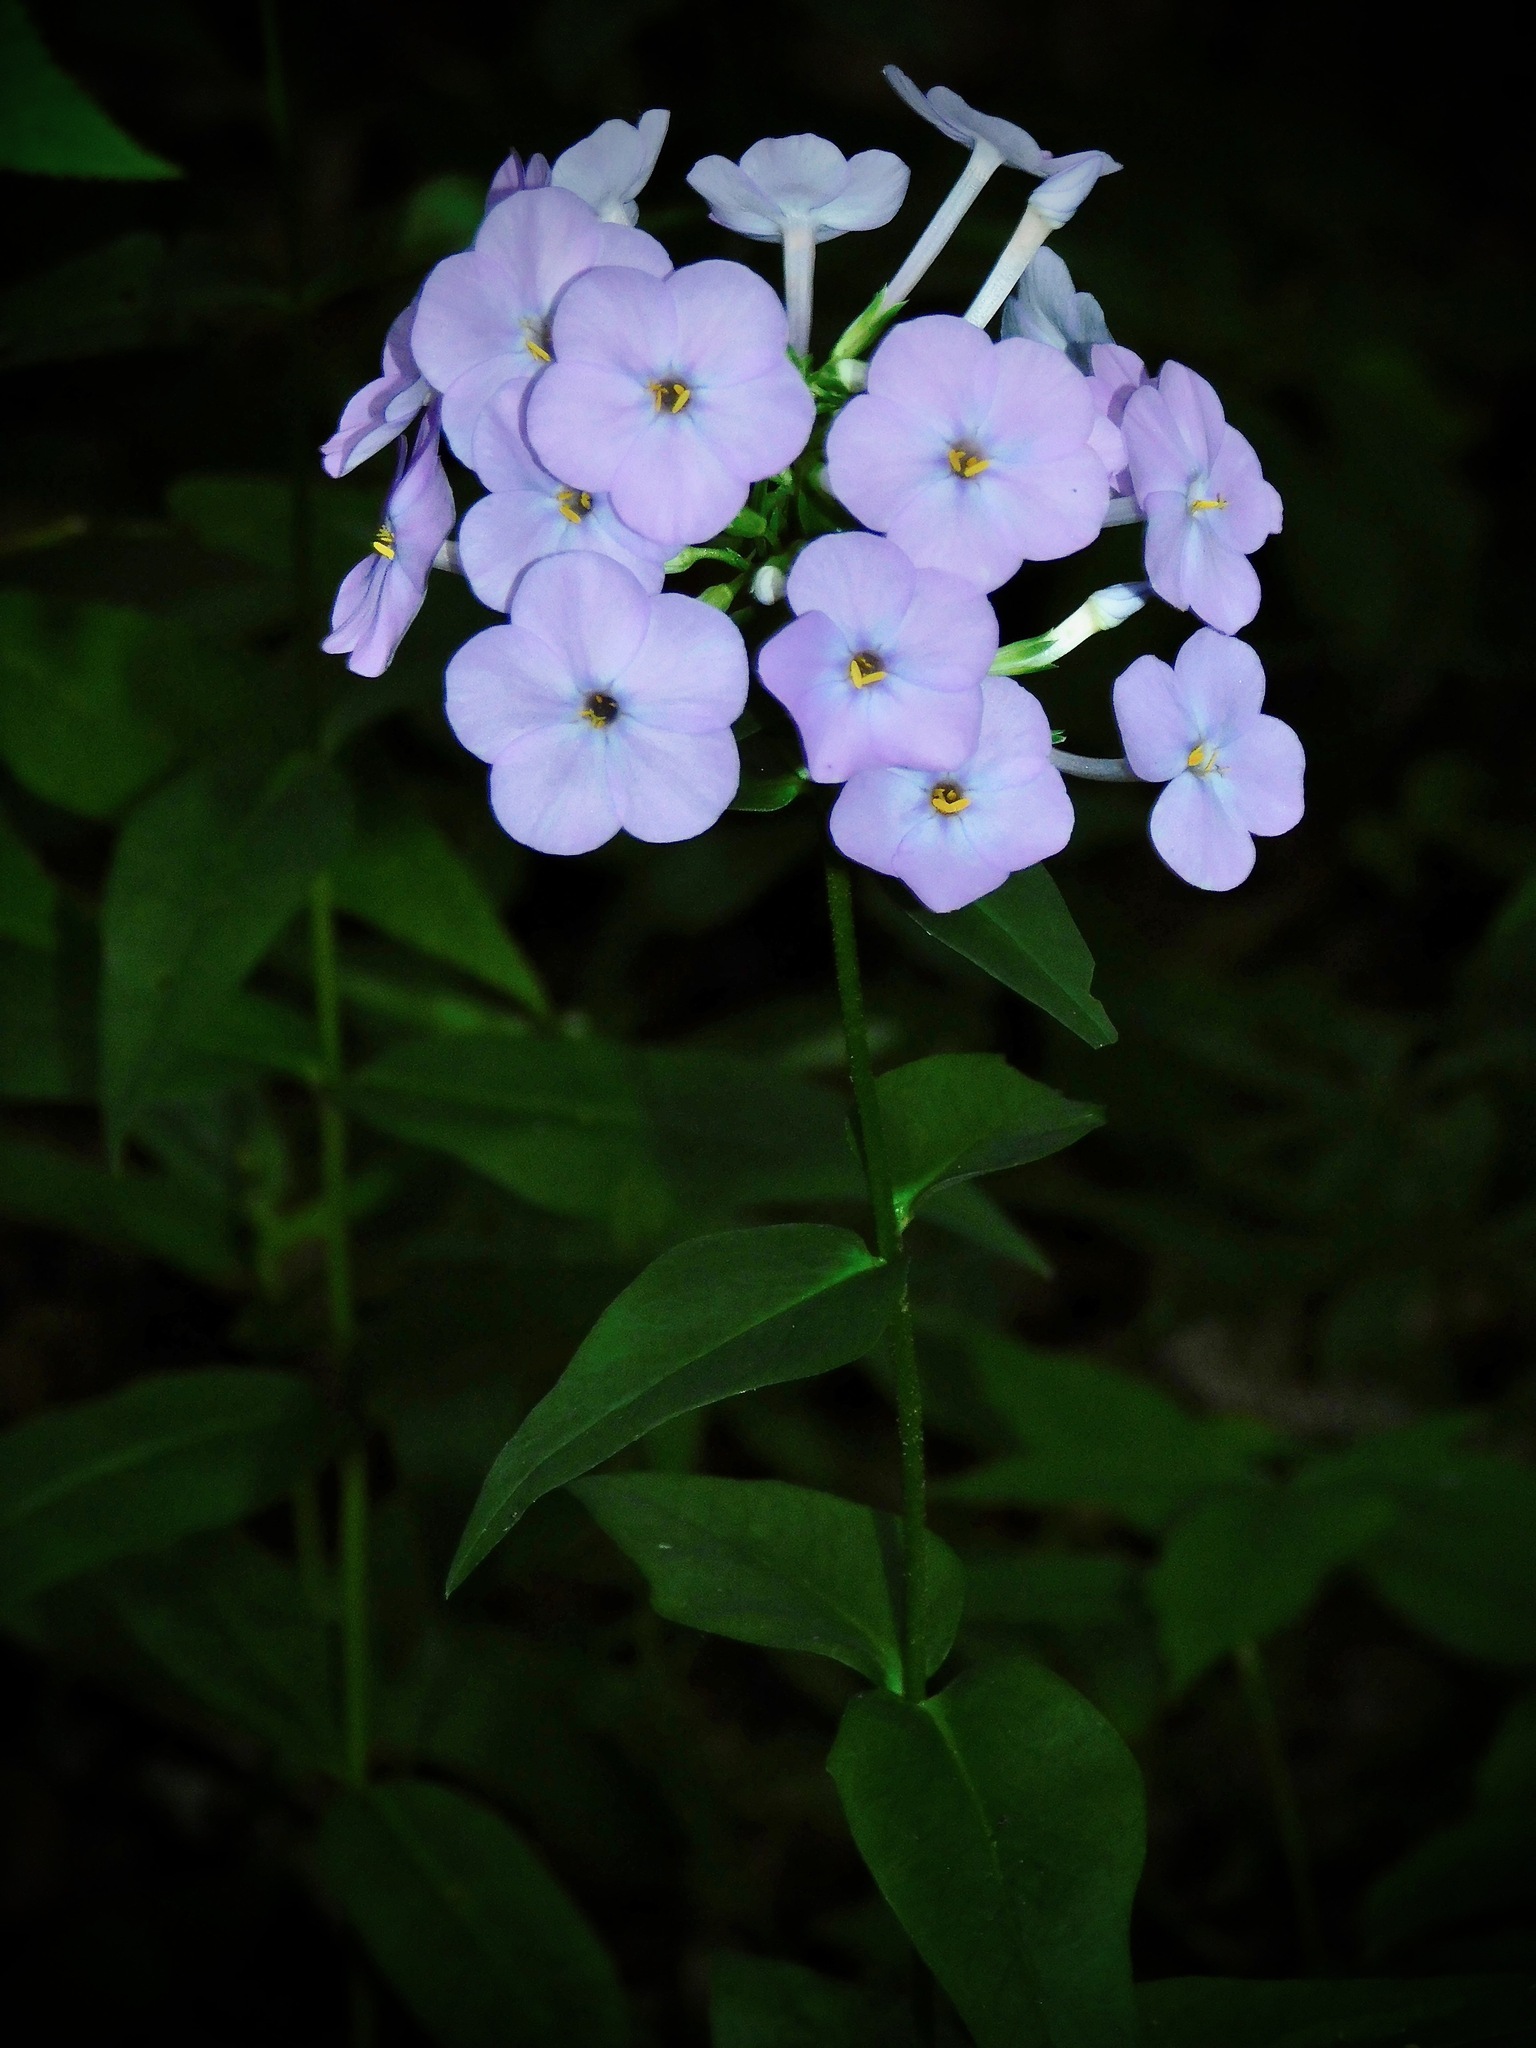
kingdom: Plantae
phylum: Tracheophyta
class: Magnoliopsida
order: Ericales
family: Polemoniaceae
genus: Phlox
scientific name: Phlox carolina
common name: Thick-leaf phlox
